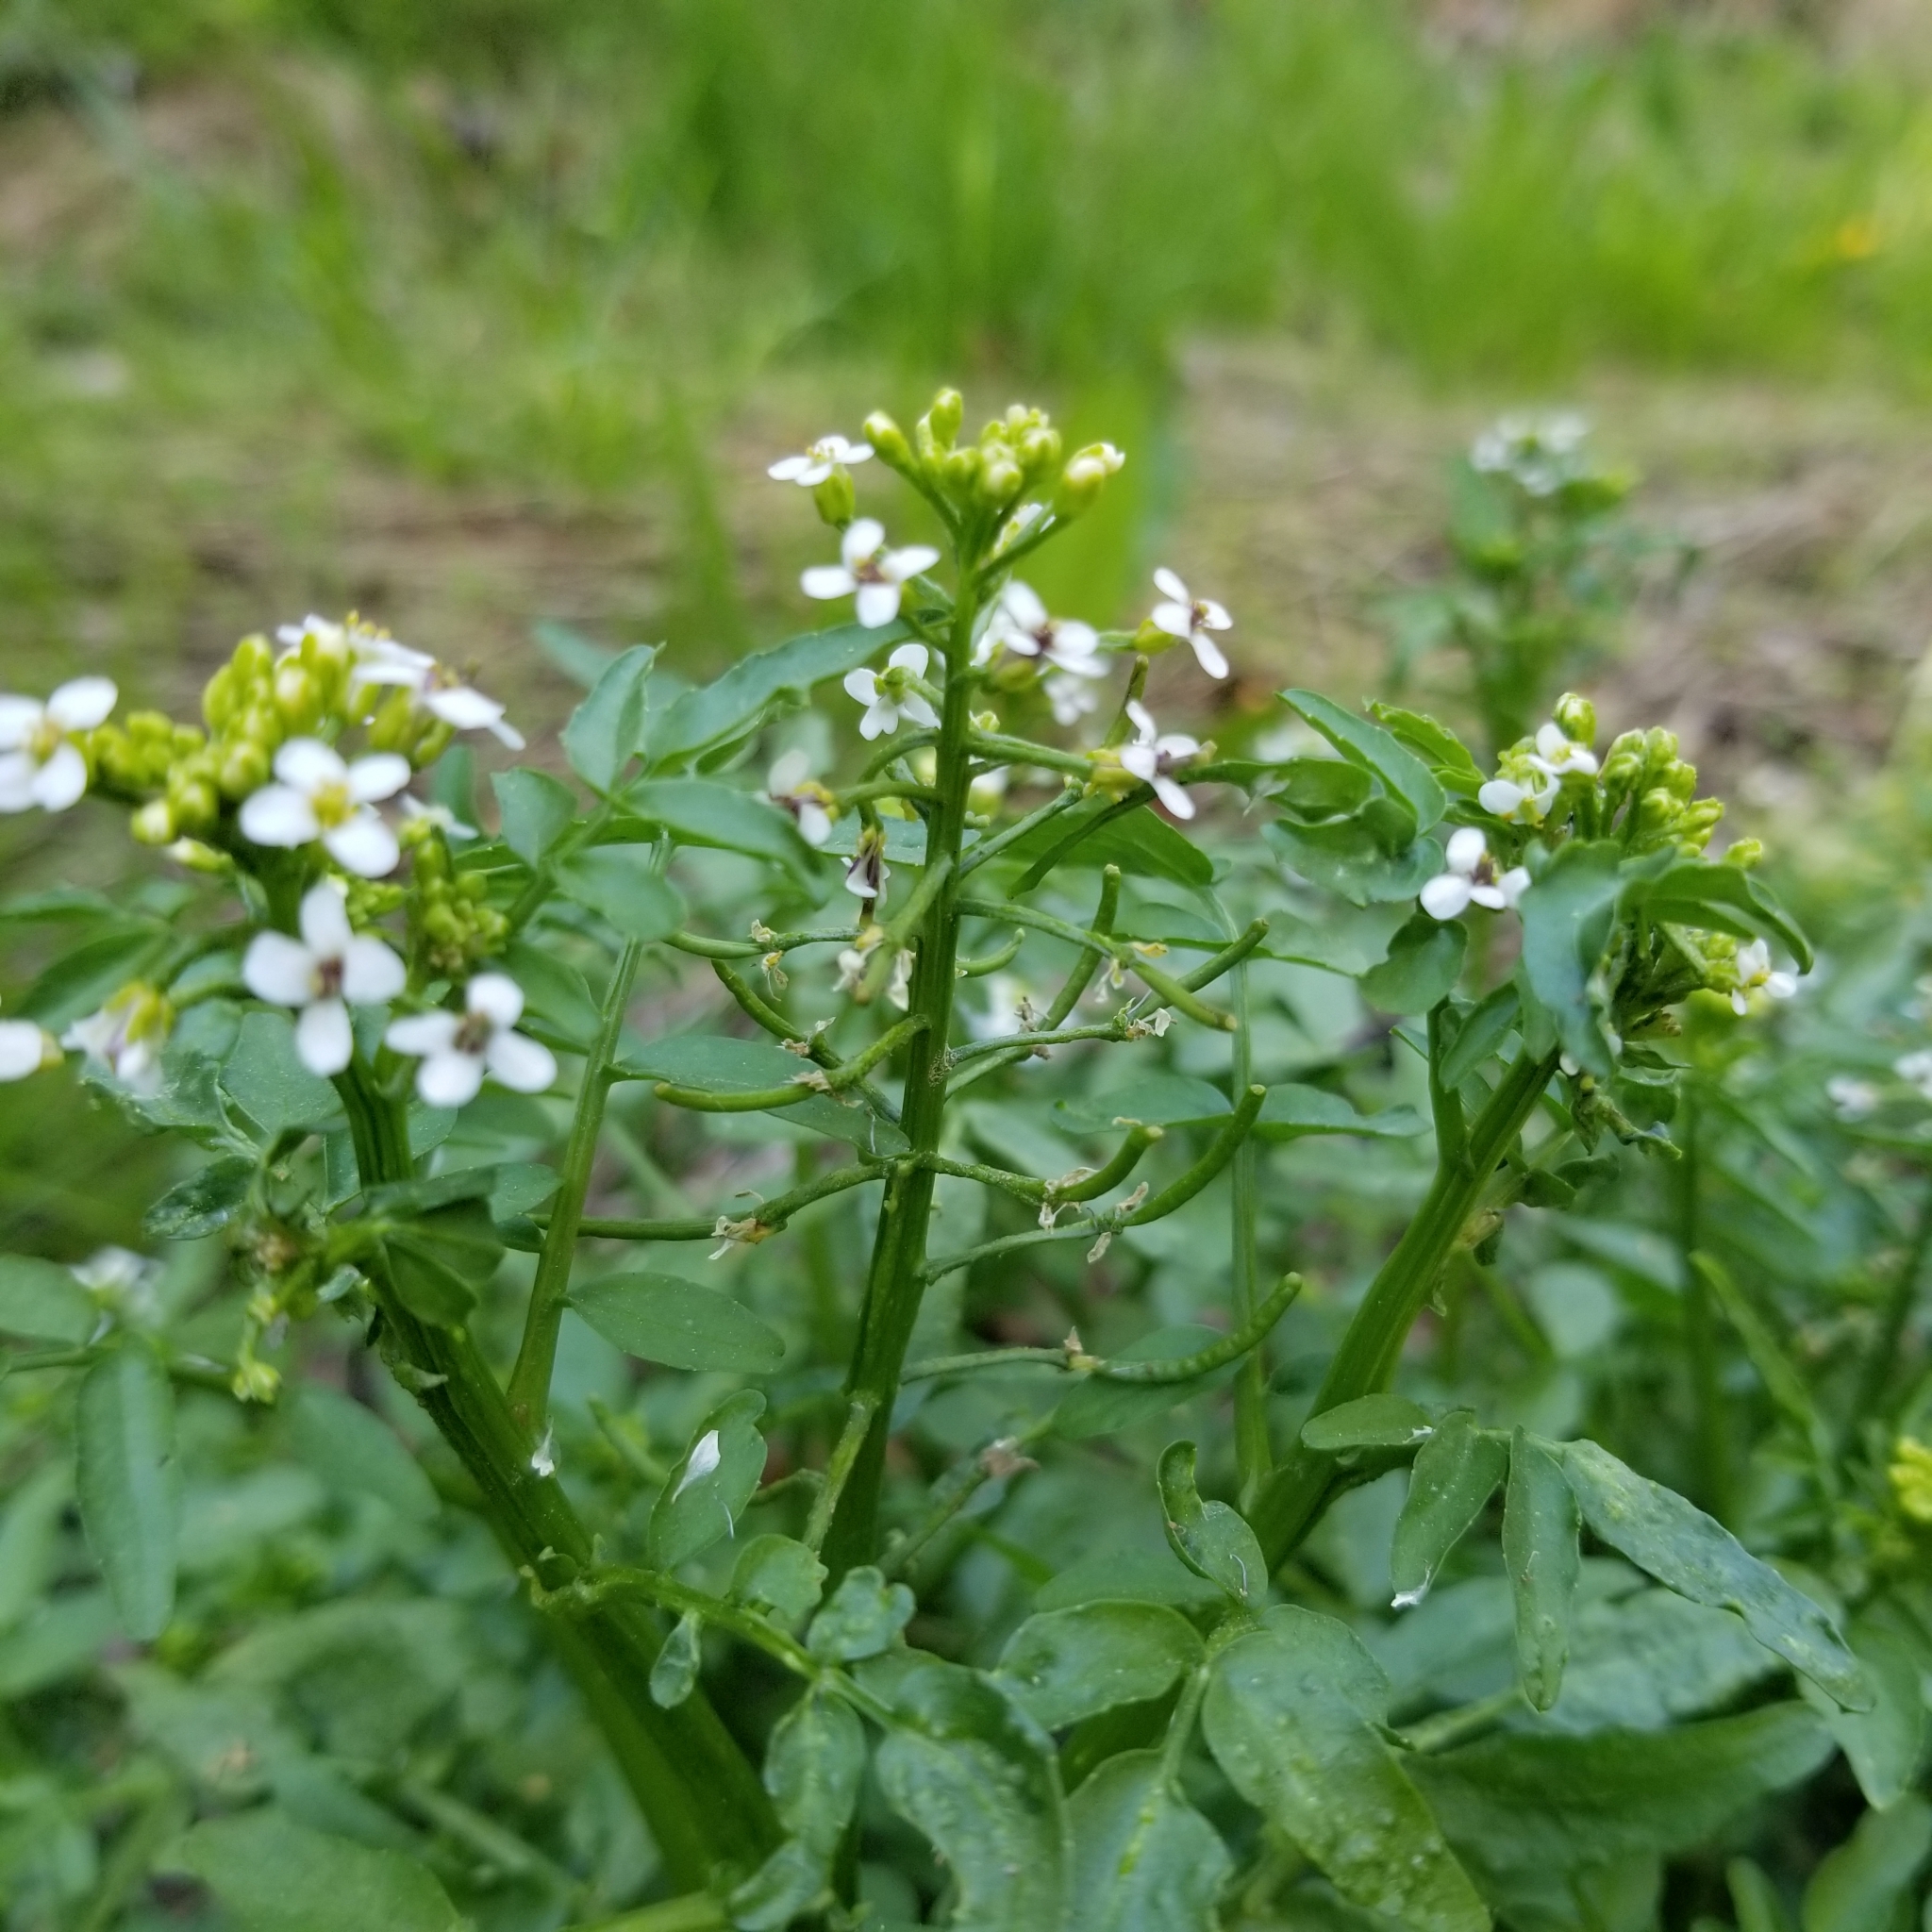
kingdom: Plantae
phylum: Tracheophyta
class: Magnoliopsida
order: Brassicales
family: Brassicaceae
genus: Nasturtium
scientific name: Nasturtium officinale
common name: Watercress
